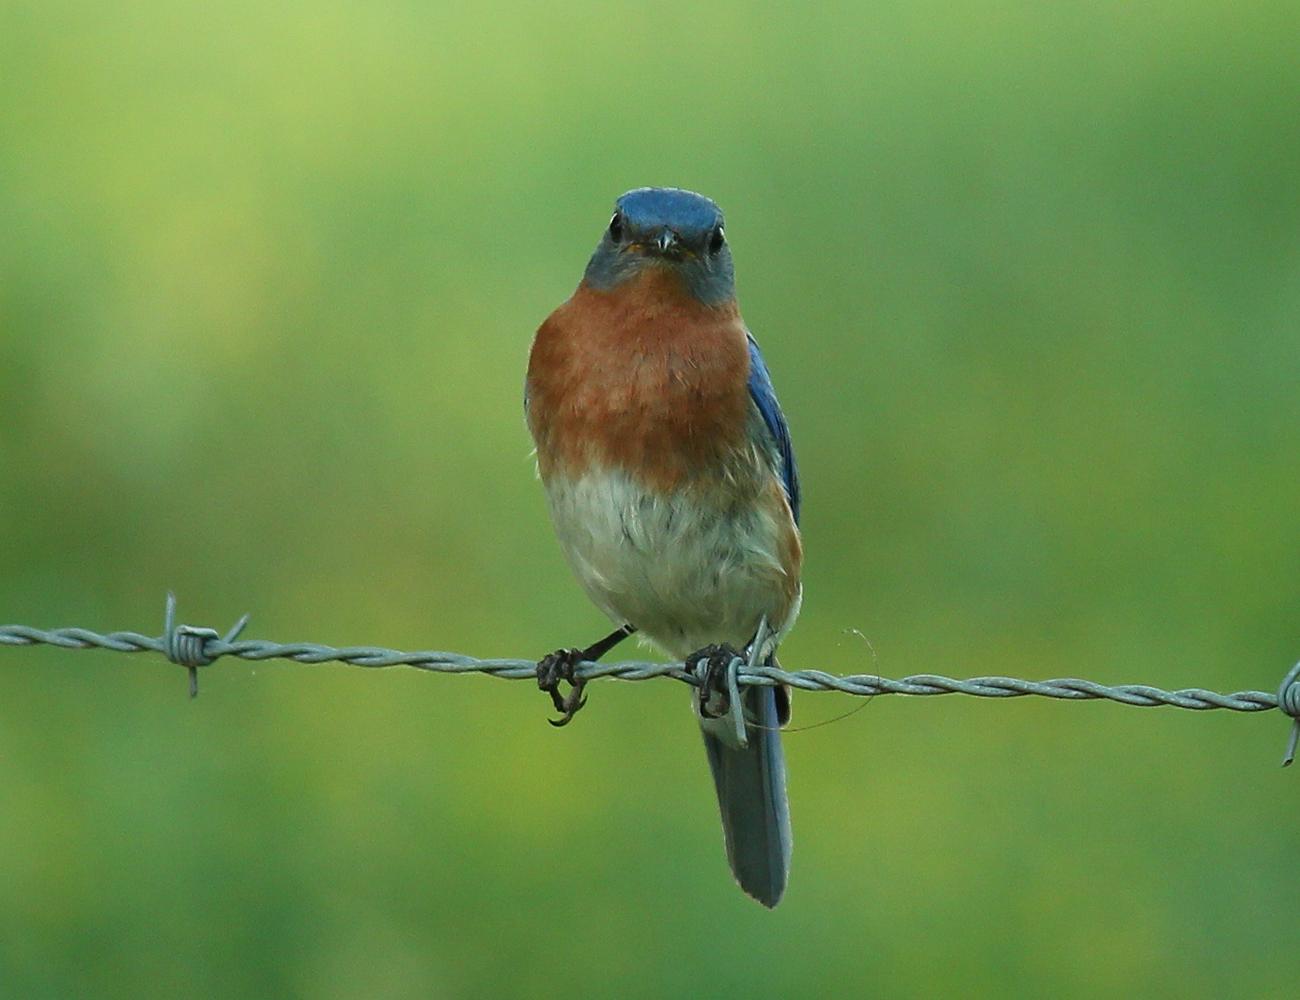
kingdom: Animalia
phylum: Chordata
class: Aves
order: Passeriformes
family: Turdidae
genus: Sialia
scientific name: Sialia sialis
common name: Eastern bluebird
